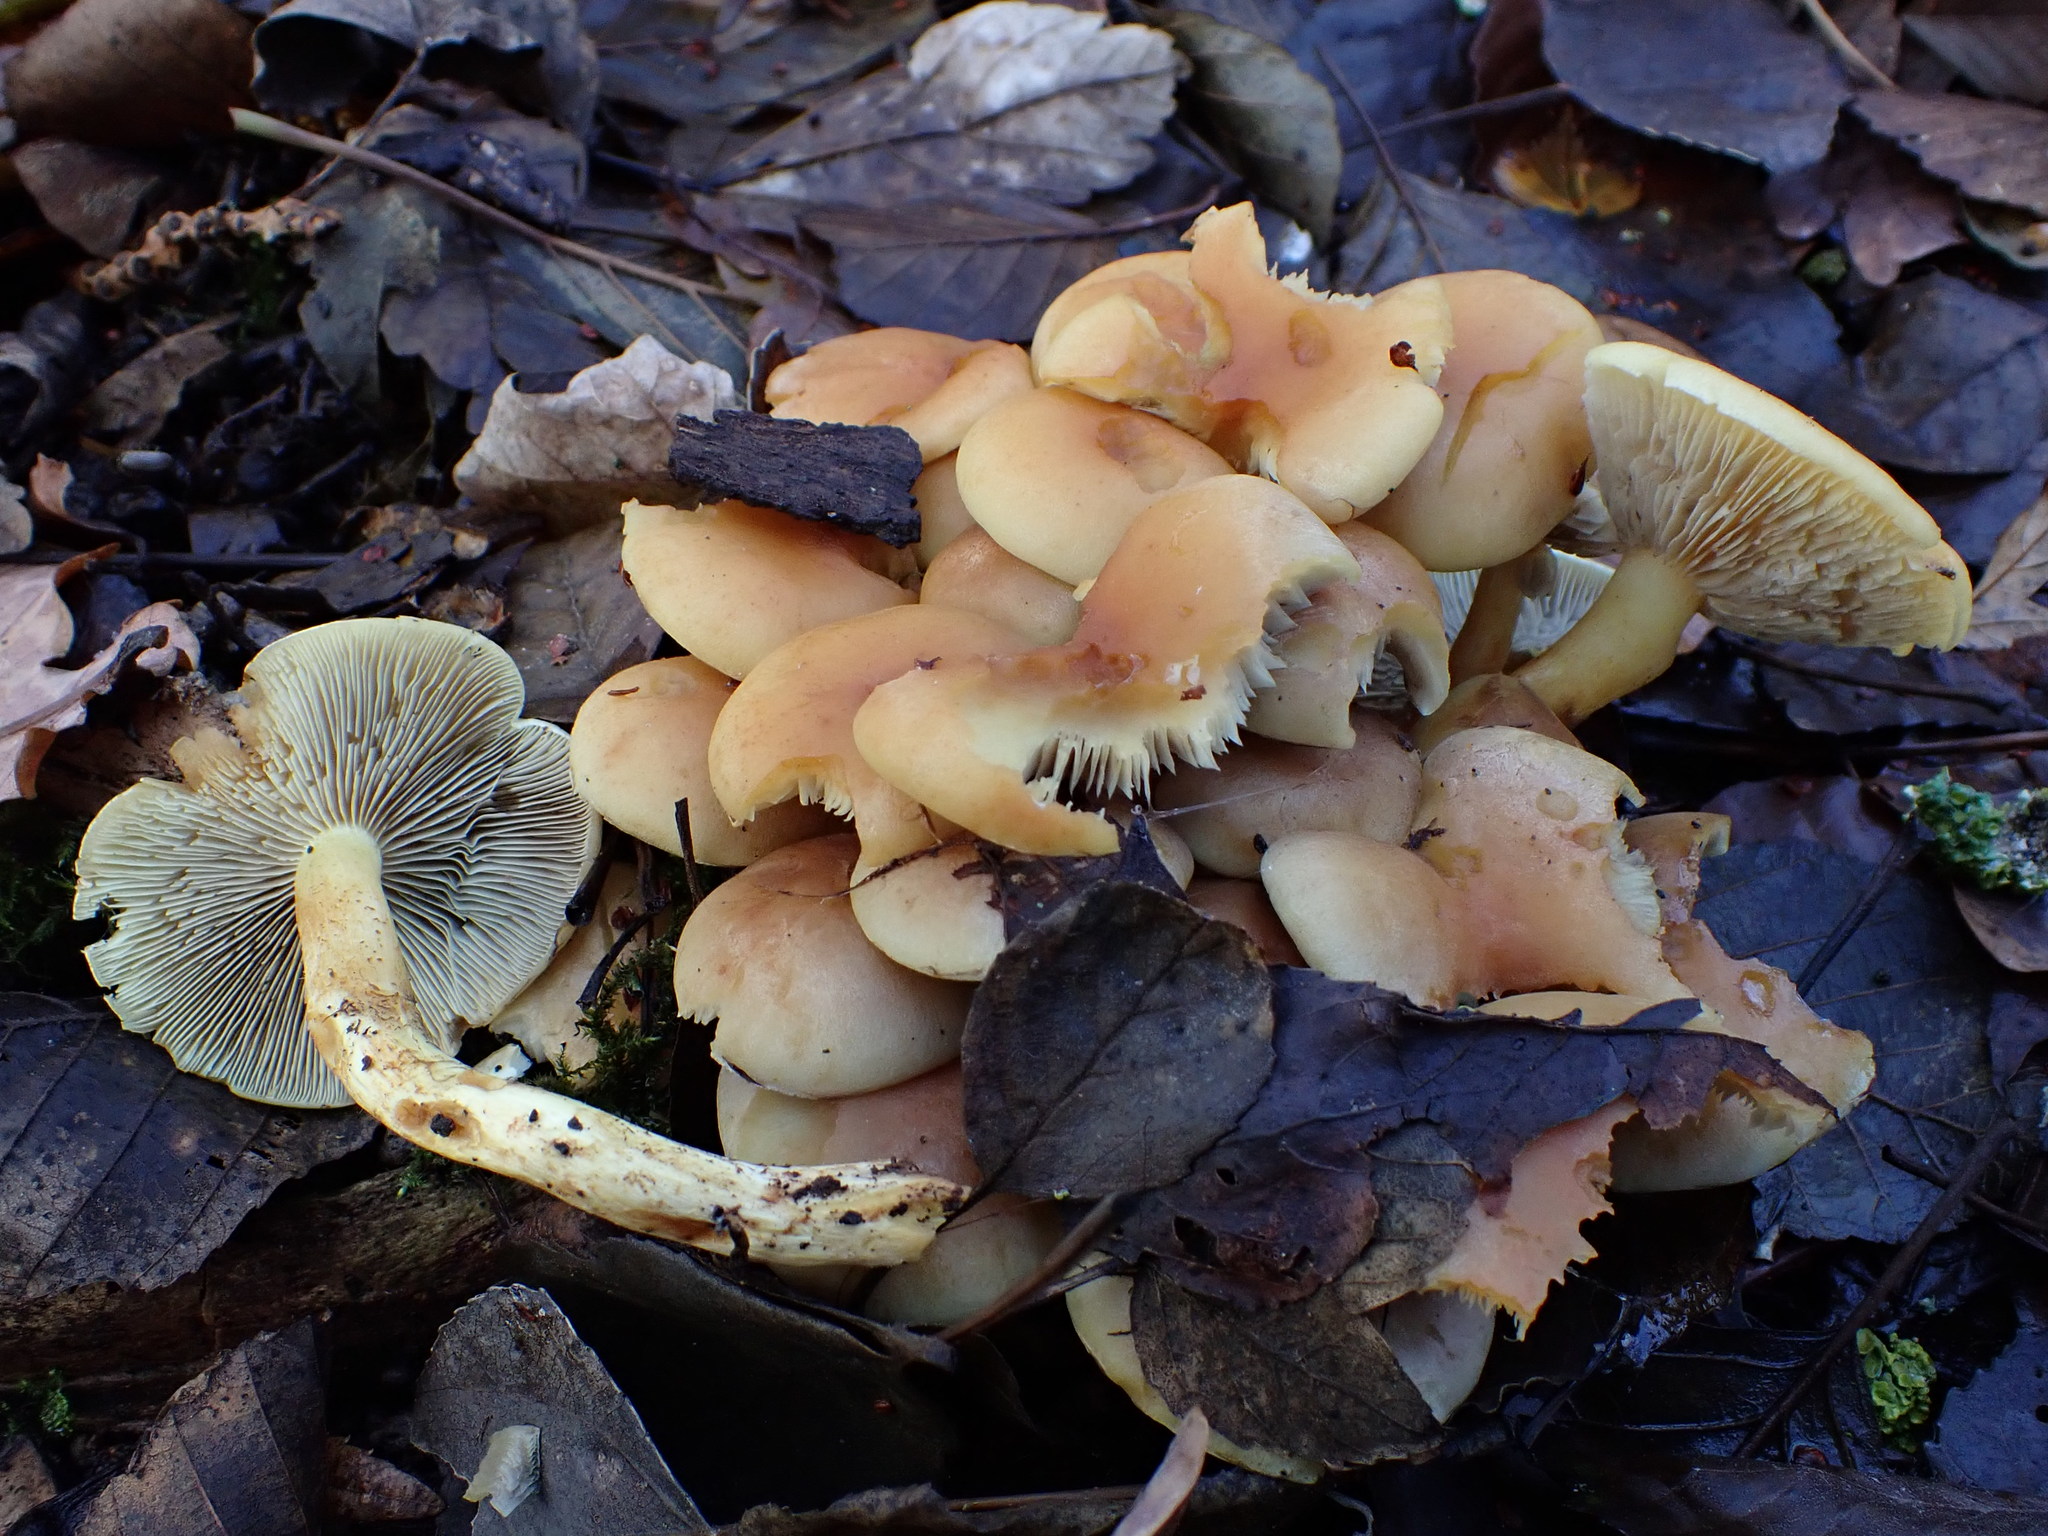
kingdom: Fungi
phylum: Basidiomycota
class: Agaricomycetes
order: Agaricales
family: Strophariaceae
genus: Hypholoma
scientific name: Hypholoma fasciculare
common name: Sulphur tuft
